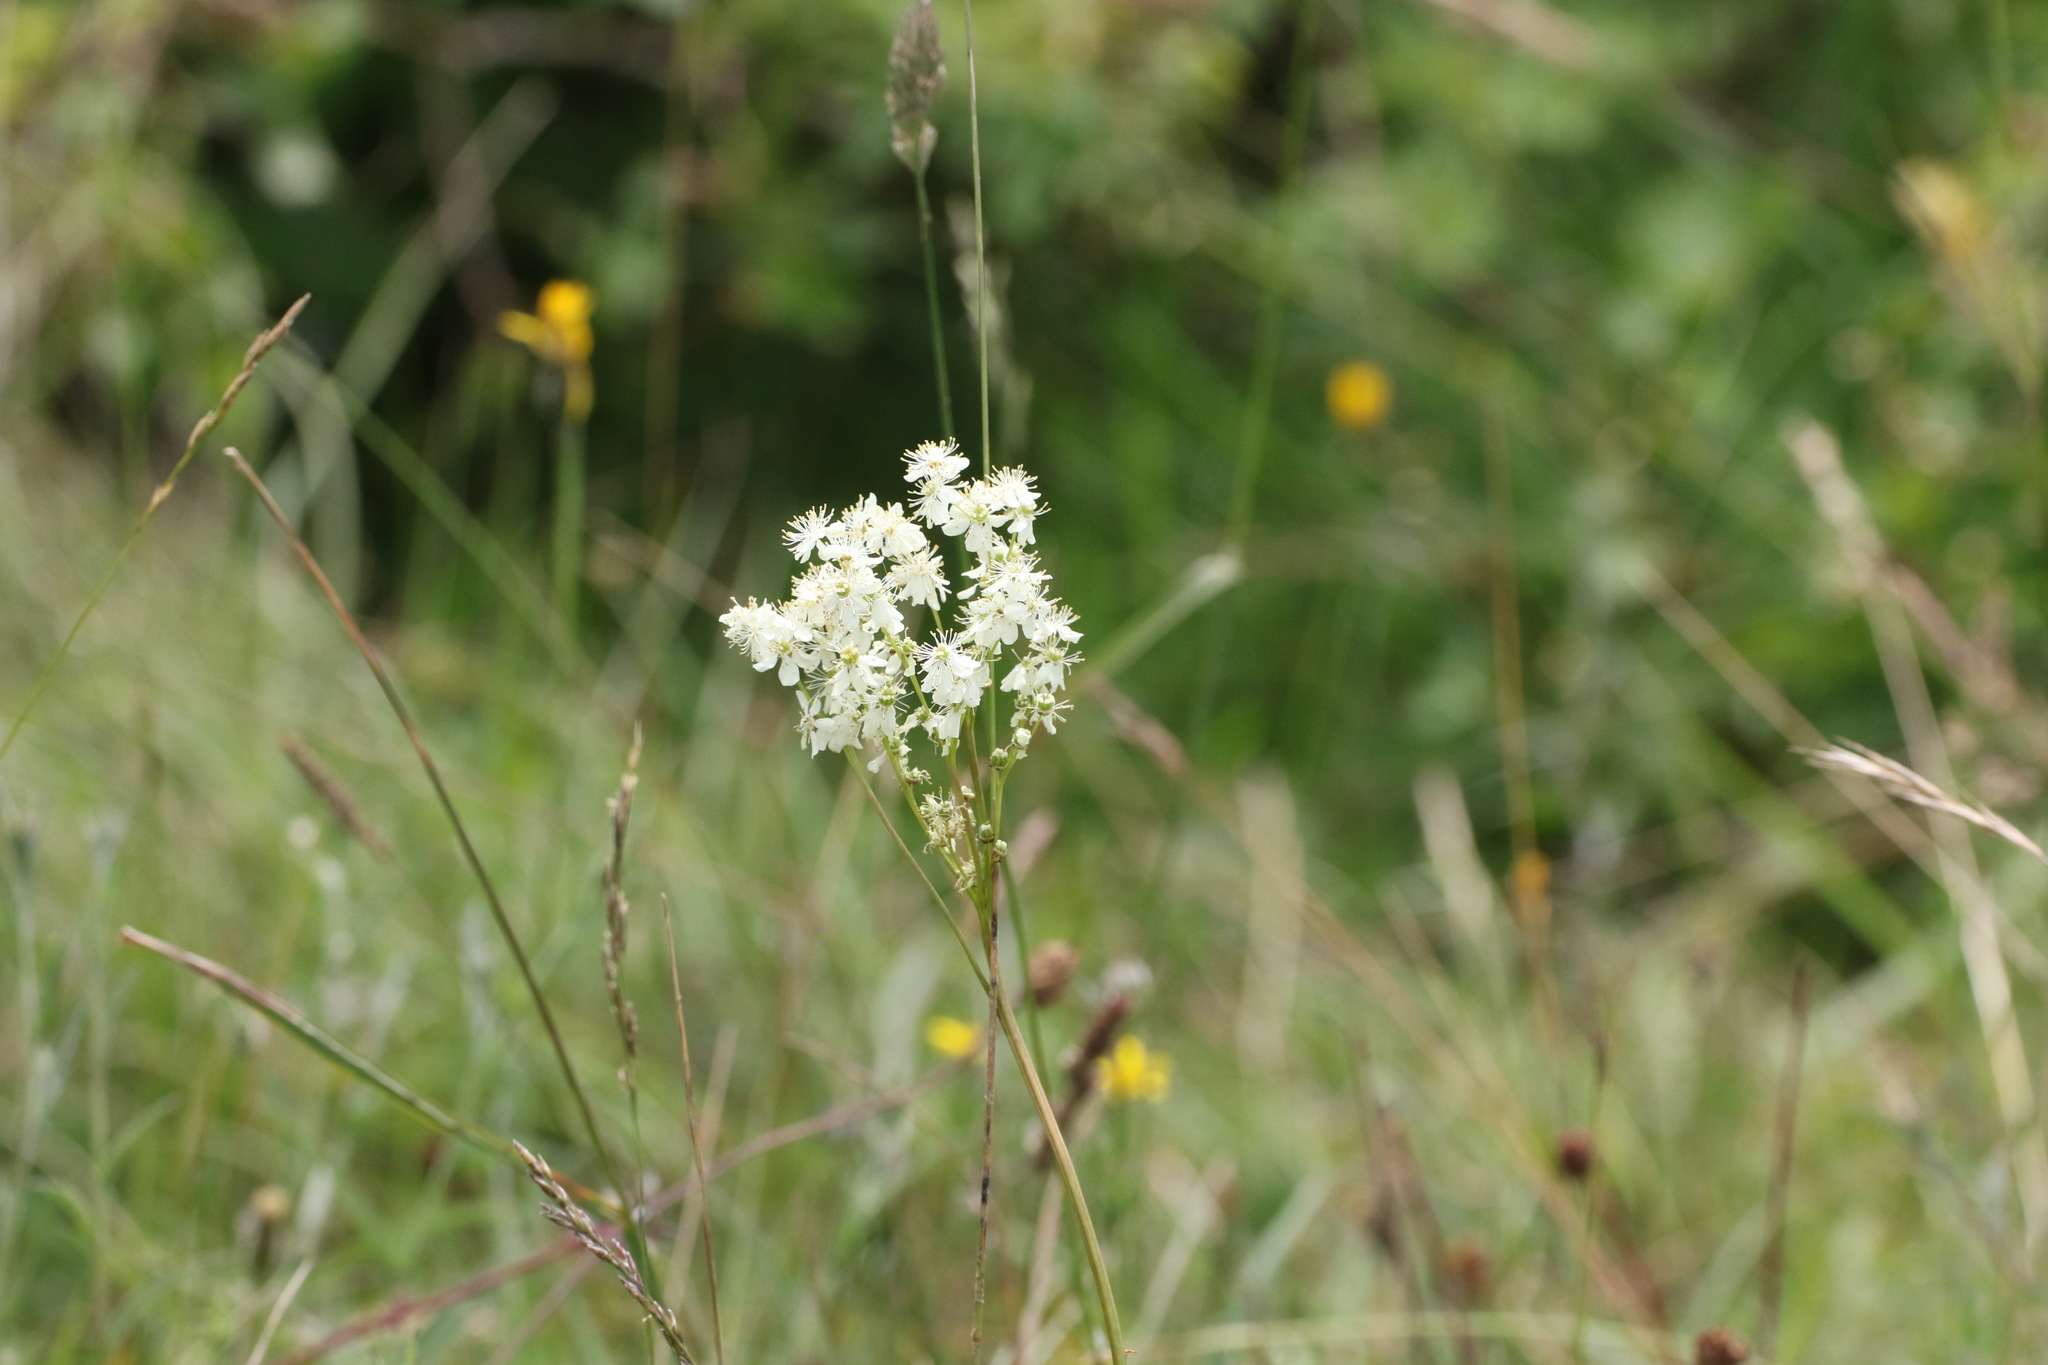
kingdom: Plantae
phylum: Tracheophyta
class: Magnoliopsida
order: Rosales
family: Rosaceae
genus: Filipendula
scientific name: Filipendula vulgaris
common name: Dropwort
